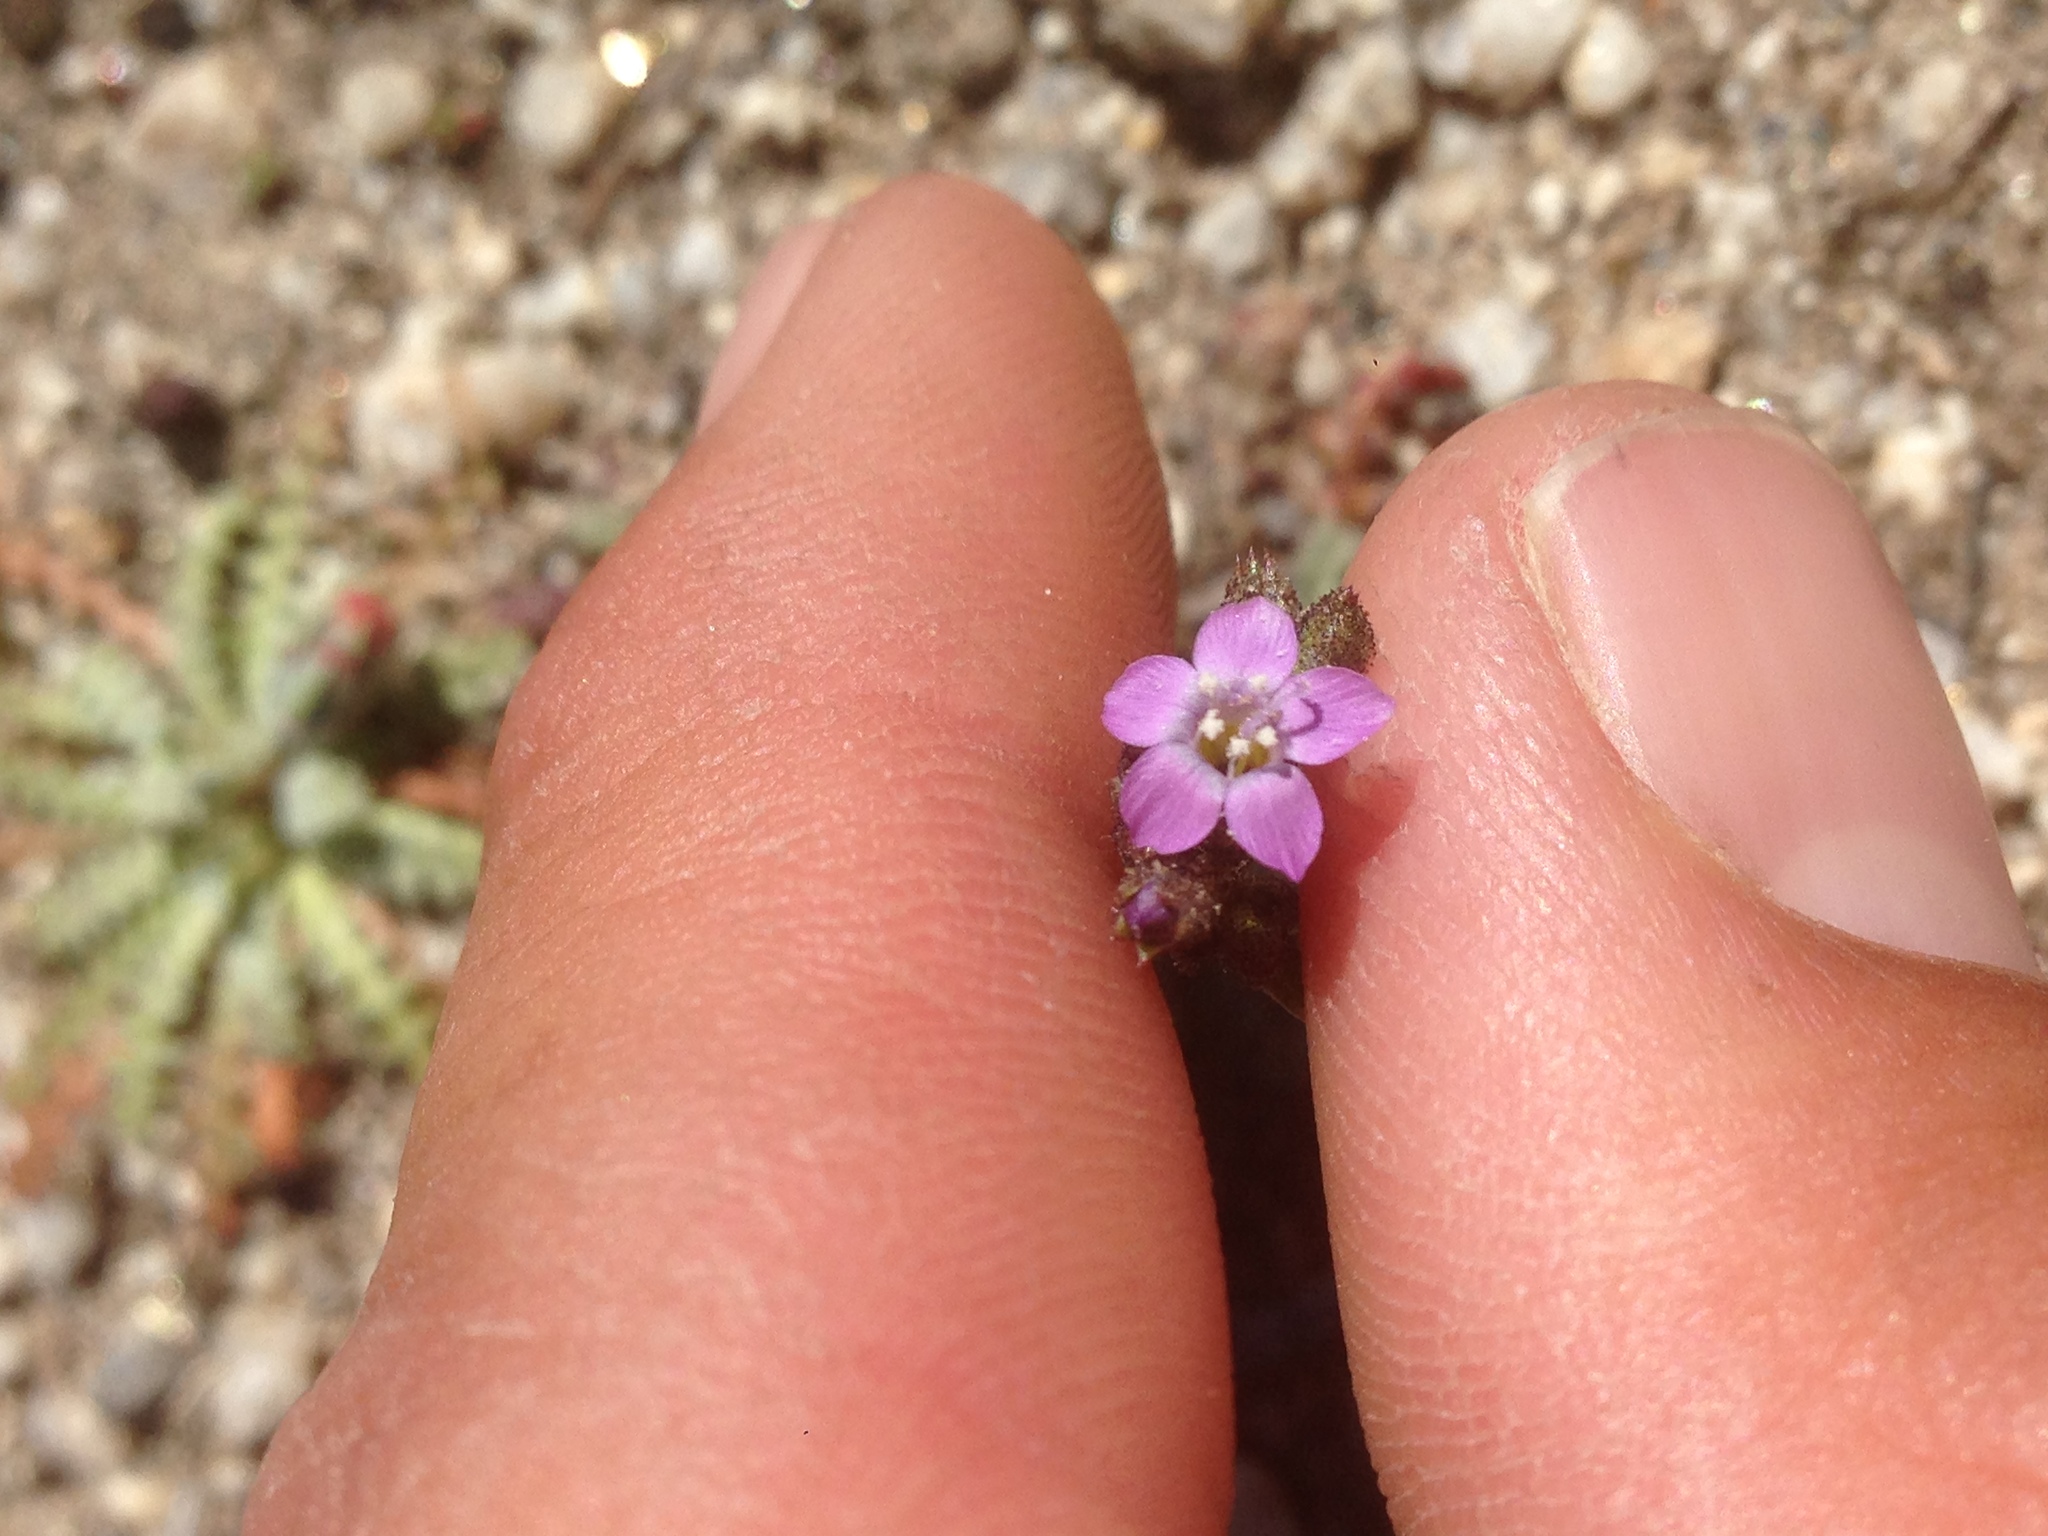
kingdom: Plantae
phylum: Tracheophyta
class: Magnoliopsida
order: Ericales
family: Polemoniaceae
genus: Gilia
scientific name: Gilia diegensis
